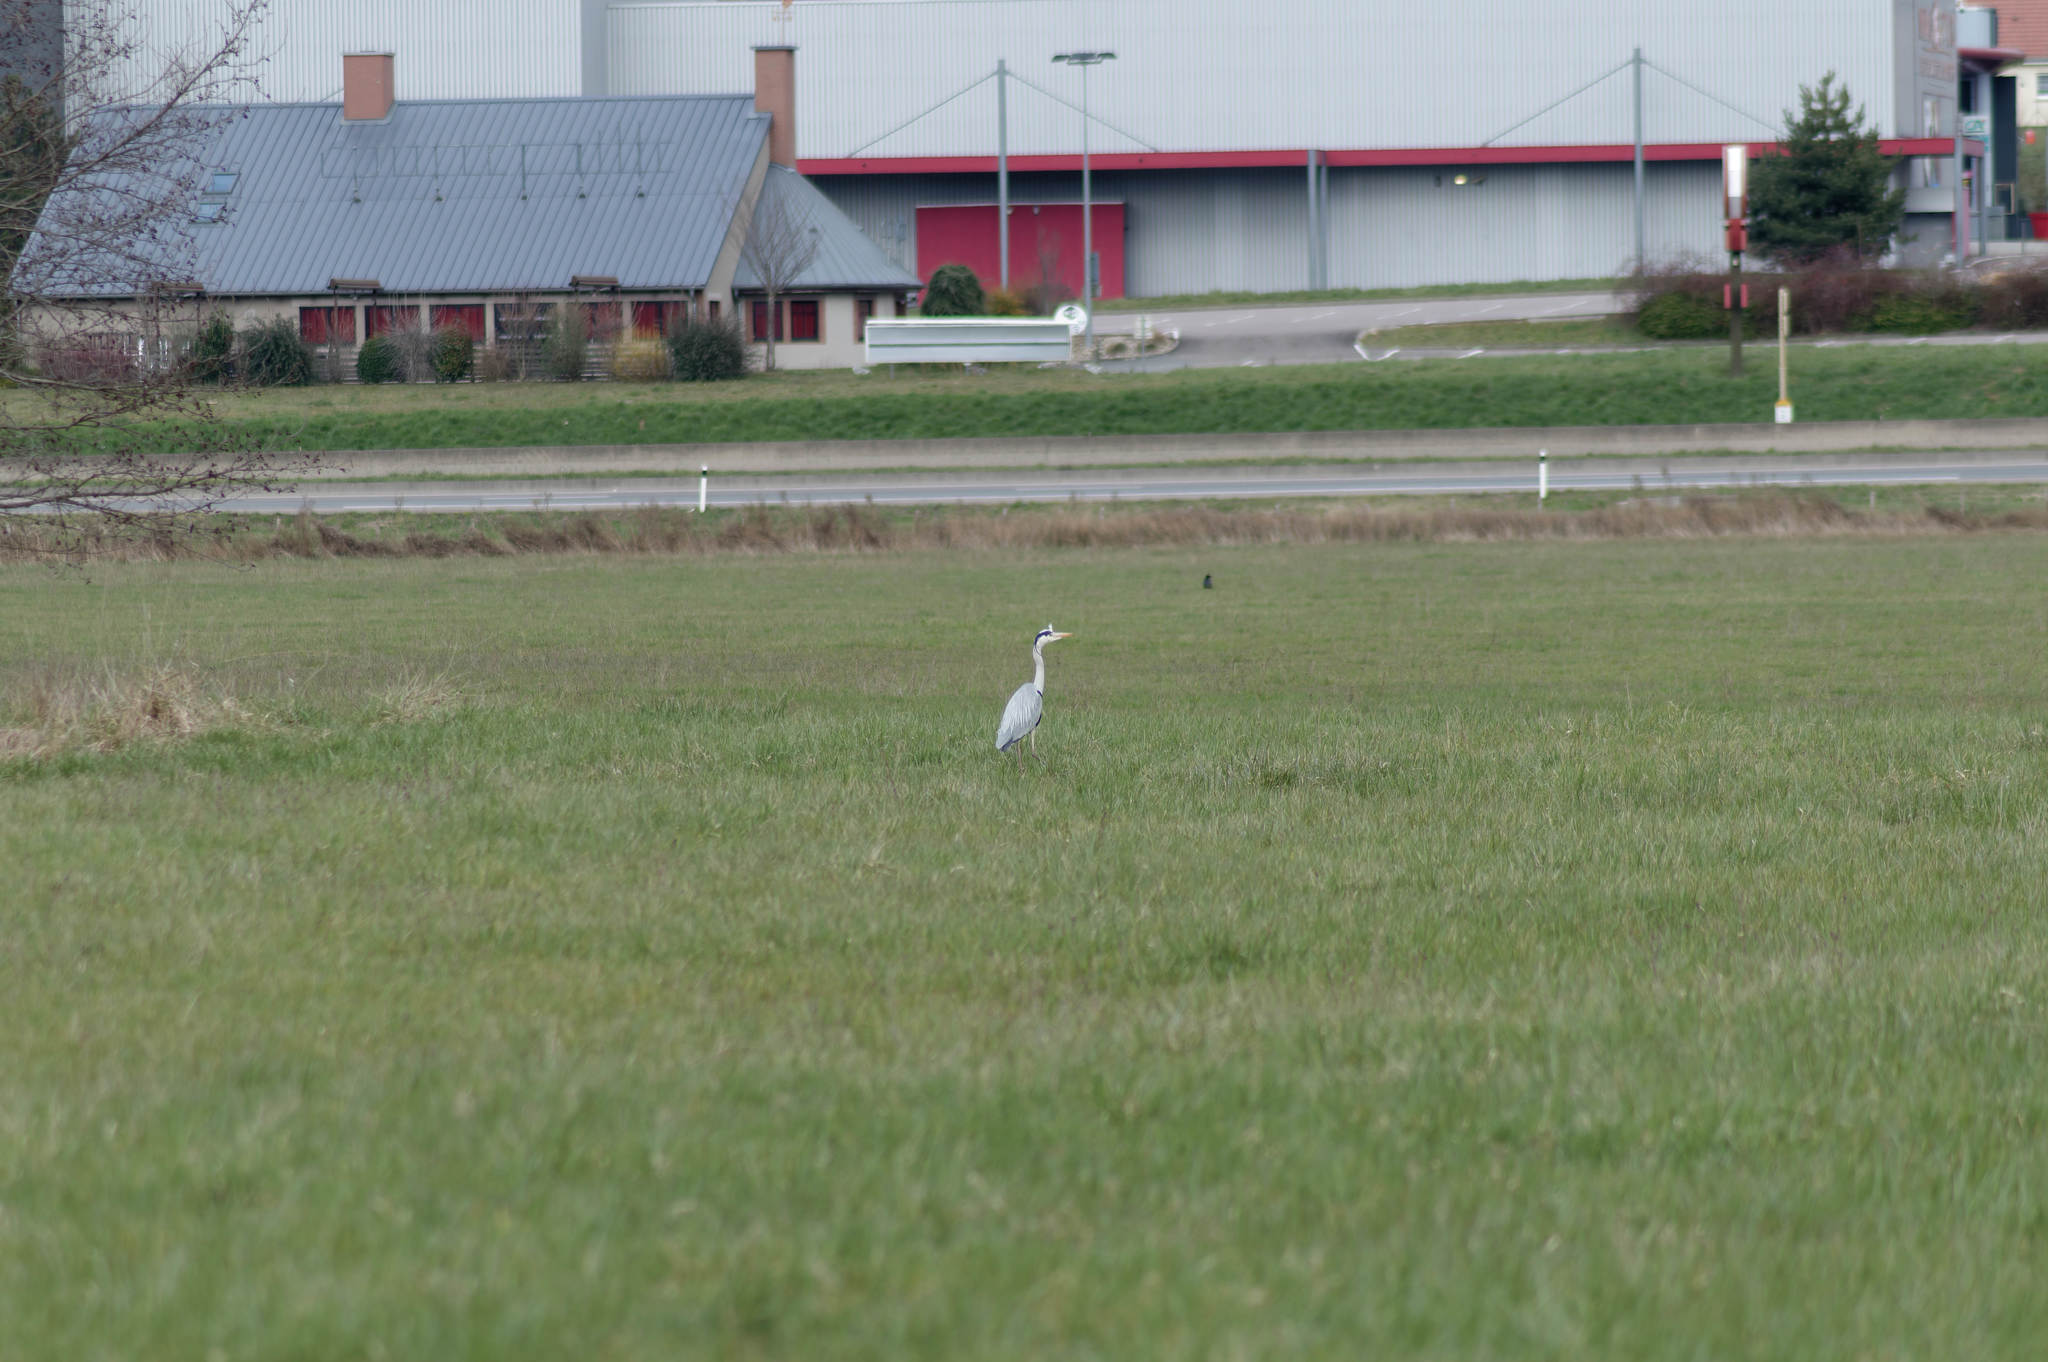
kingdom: Animalia
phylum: Chordata
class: Aves
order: Pelecaniformes
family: Ardeidae
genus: Ardea
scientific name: Ardea cinerea
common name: Grey heron
